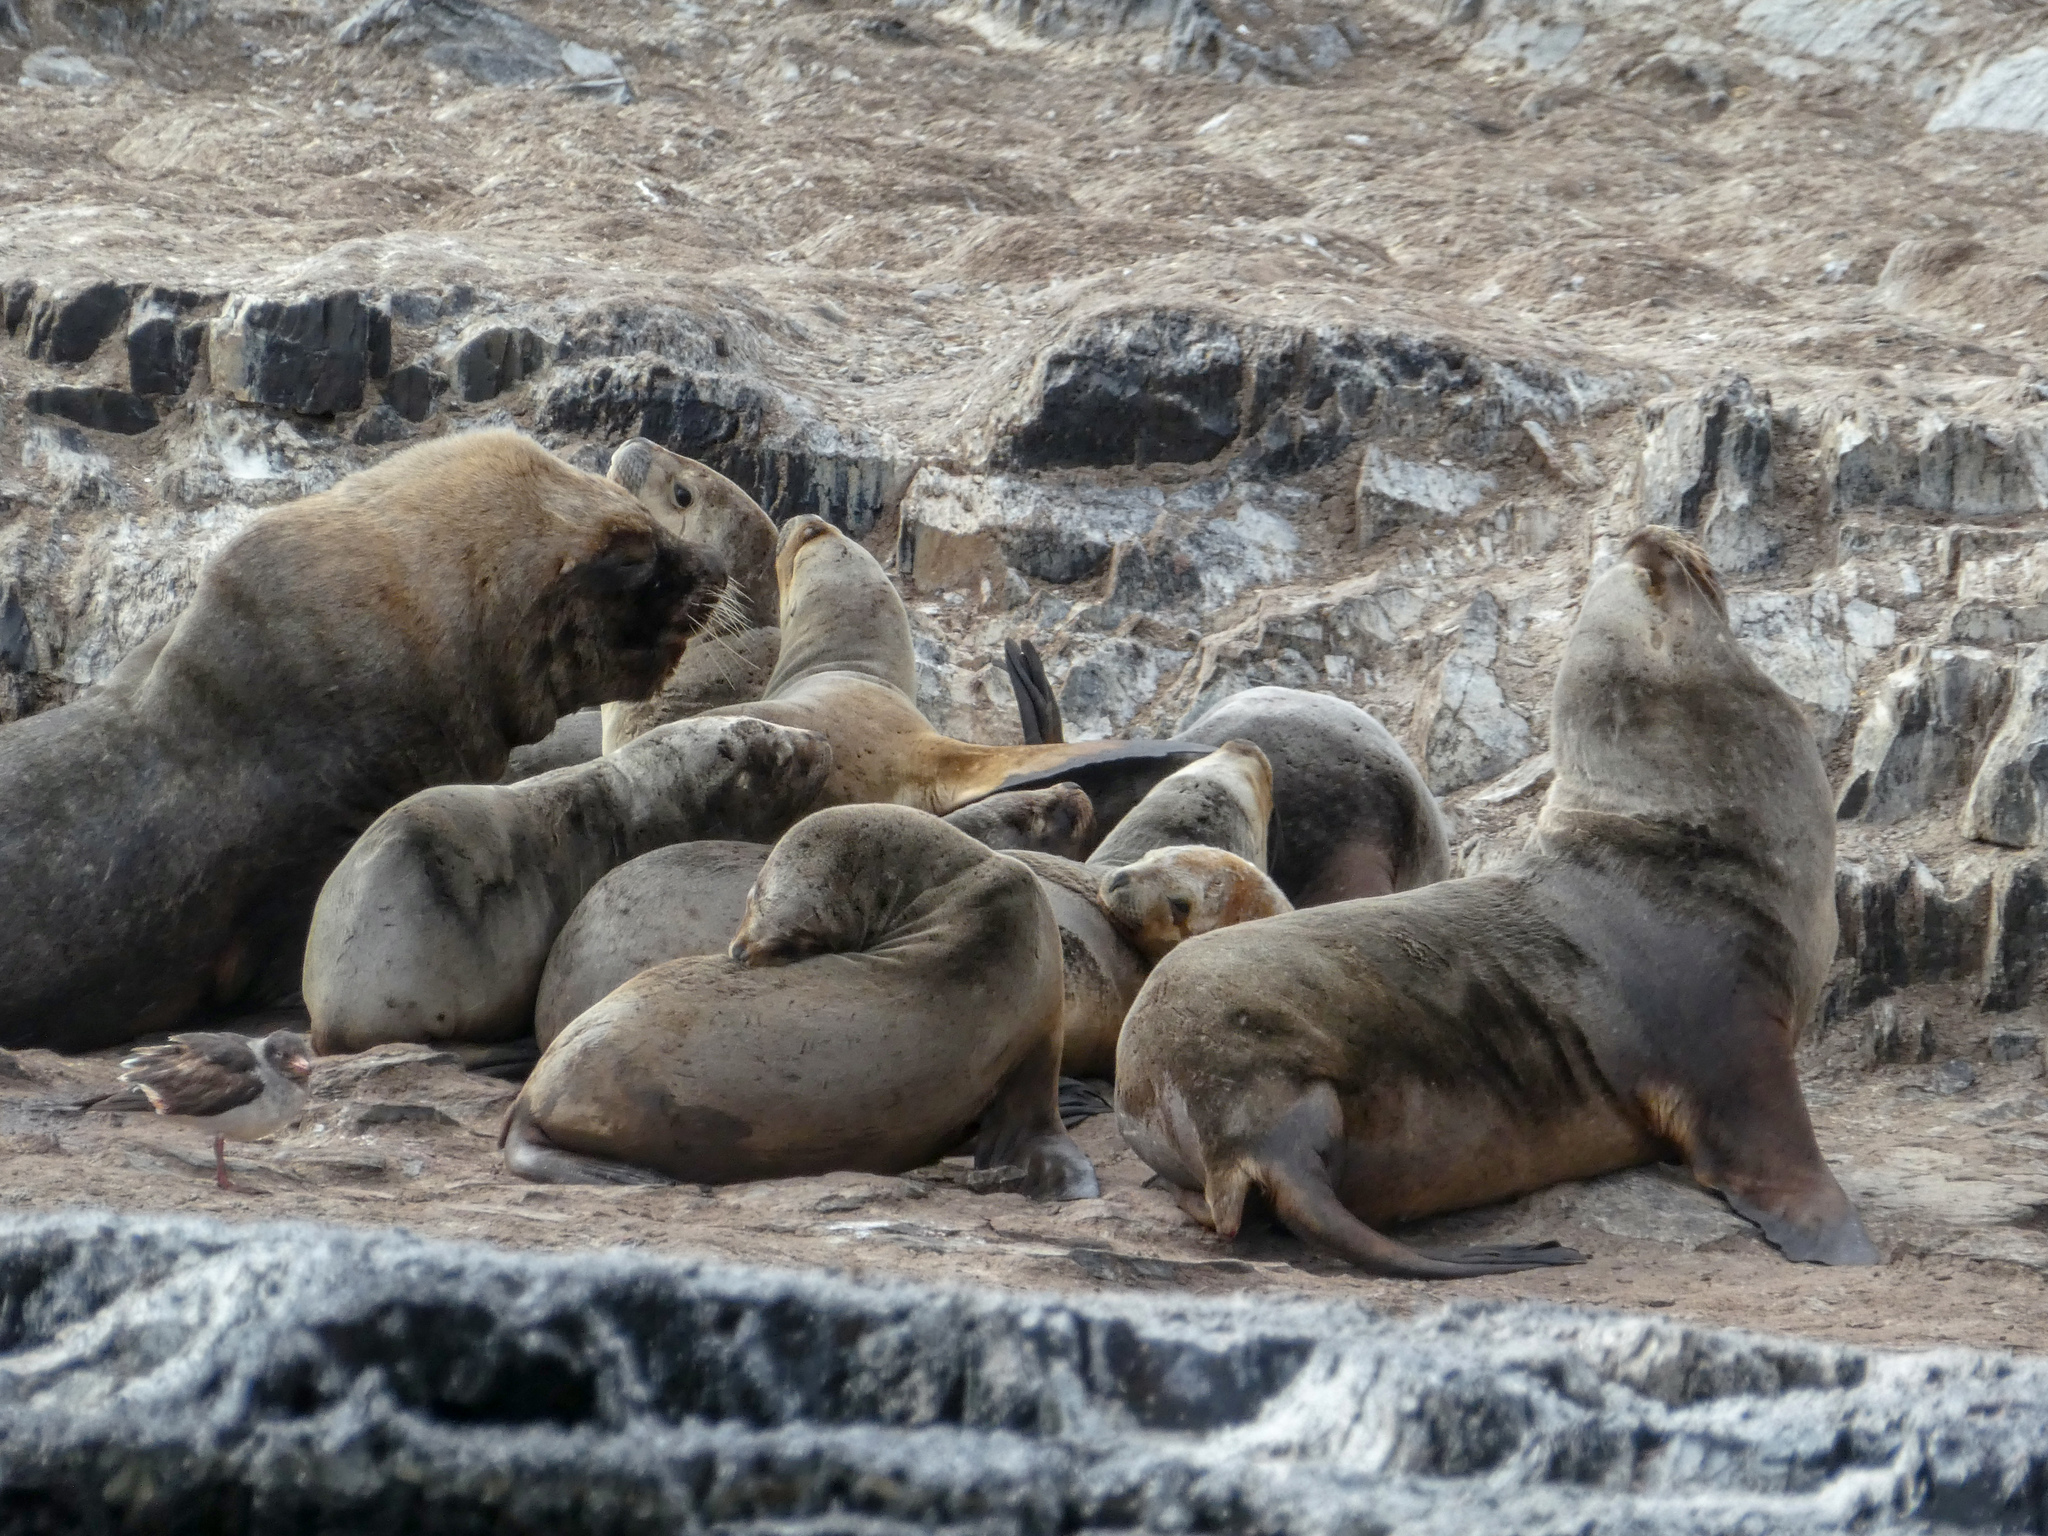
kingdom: Animalia
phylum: Chordata
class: Mammalia
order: Carnivora
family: Otariidae
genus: Otaria
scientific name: Otaria byronia
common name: South american sea lion
